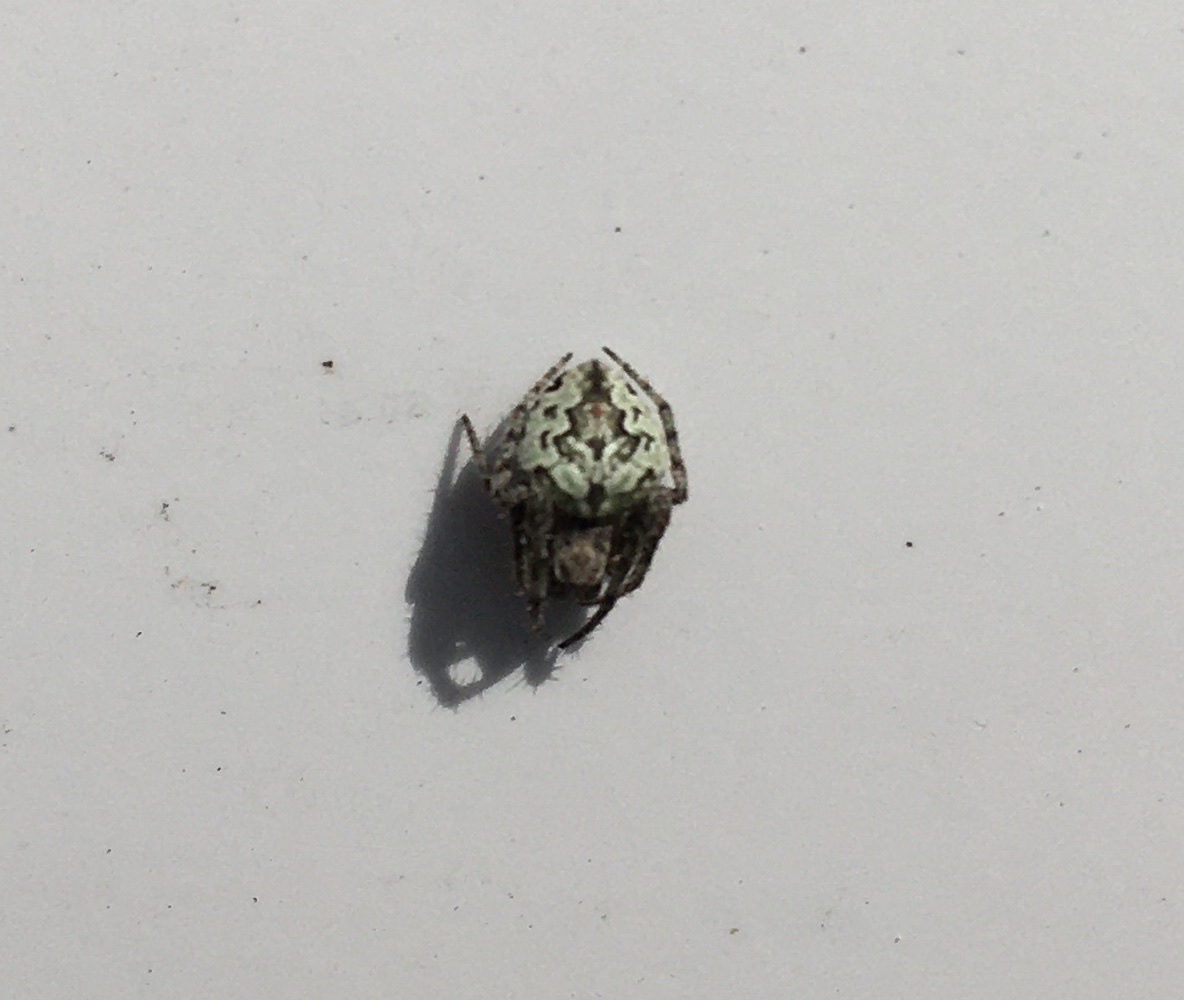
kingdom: Animalia
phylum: Arthropoda
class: Arachnida
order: Araneae
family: Araneidae
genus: Eustala
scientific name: Eustala anastera
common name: Orb weavers
